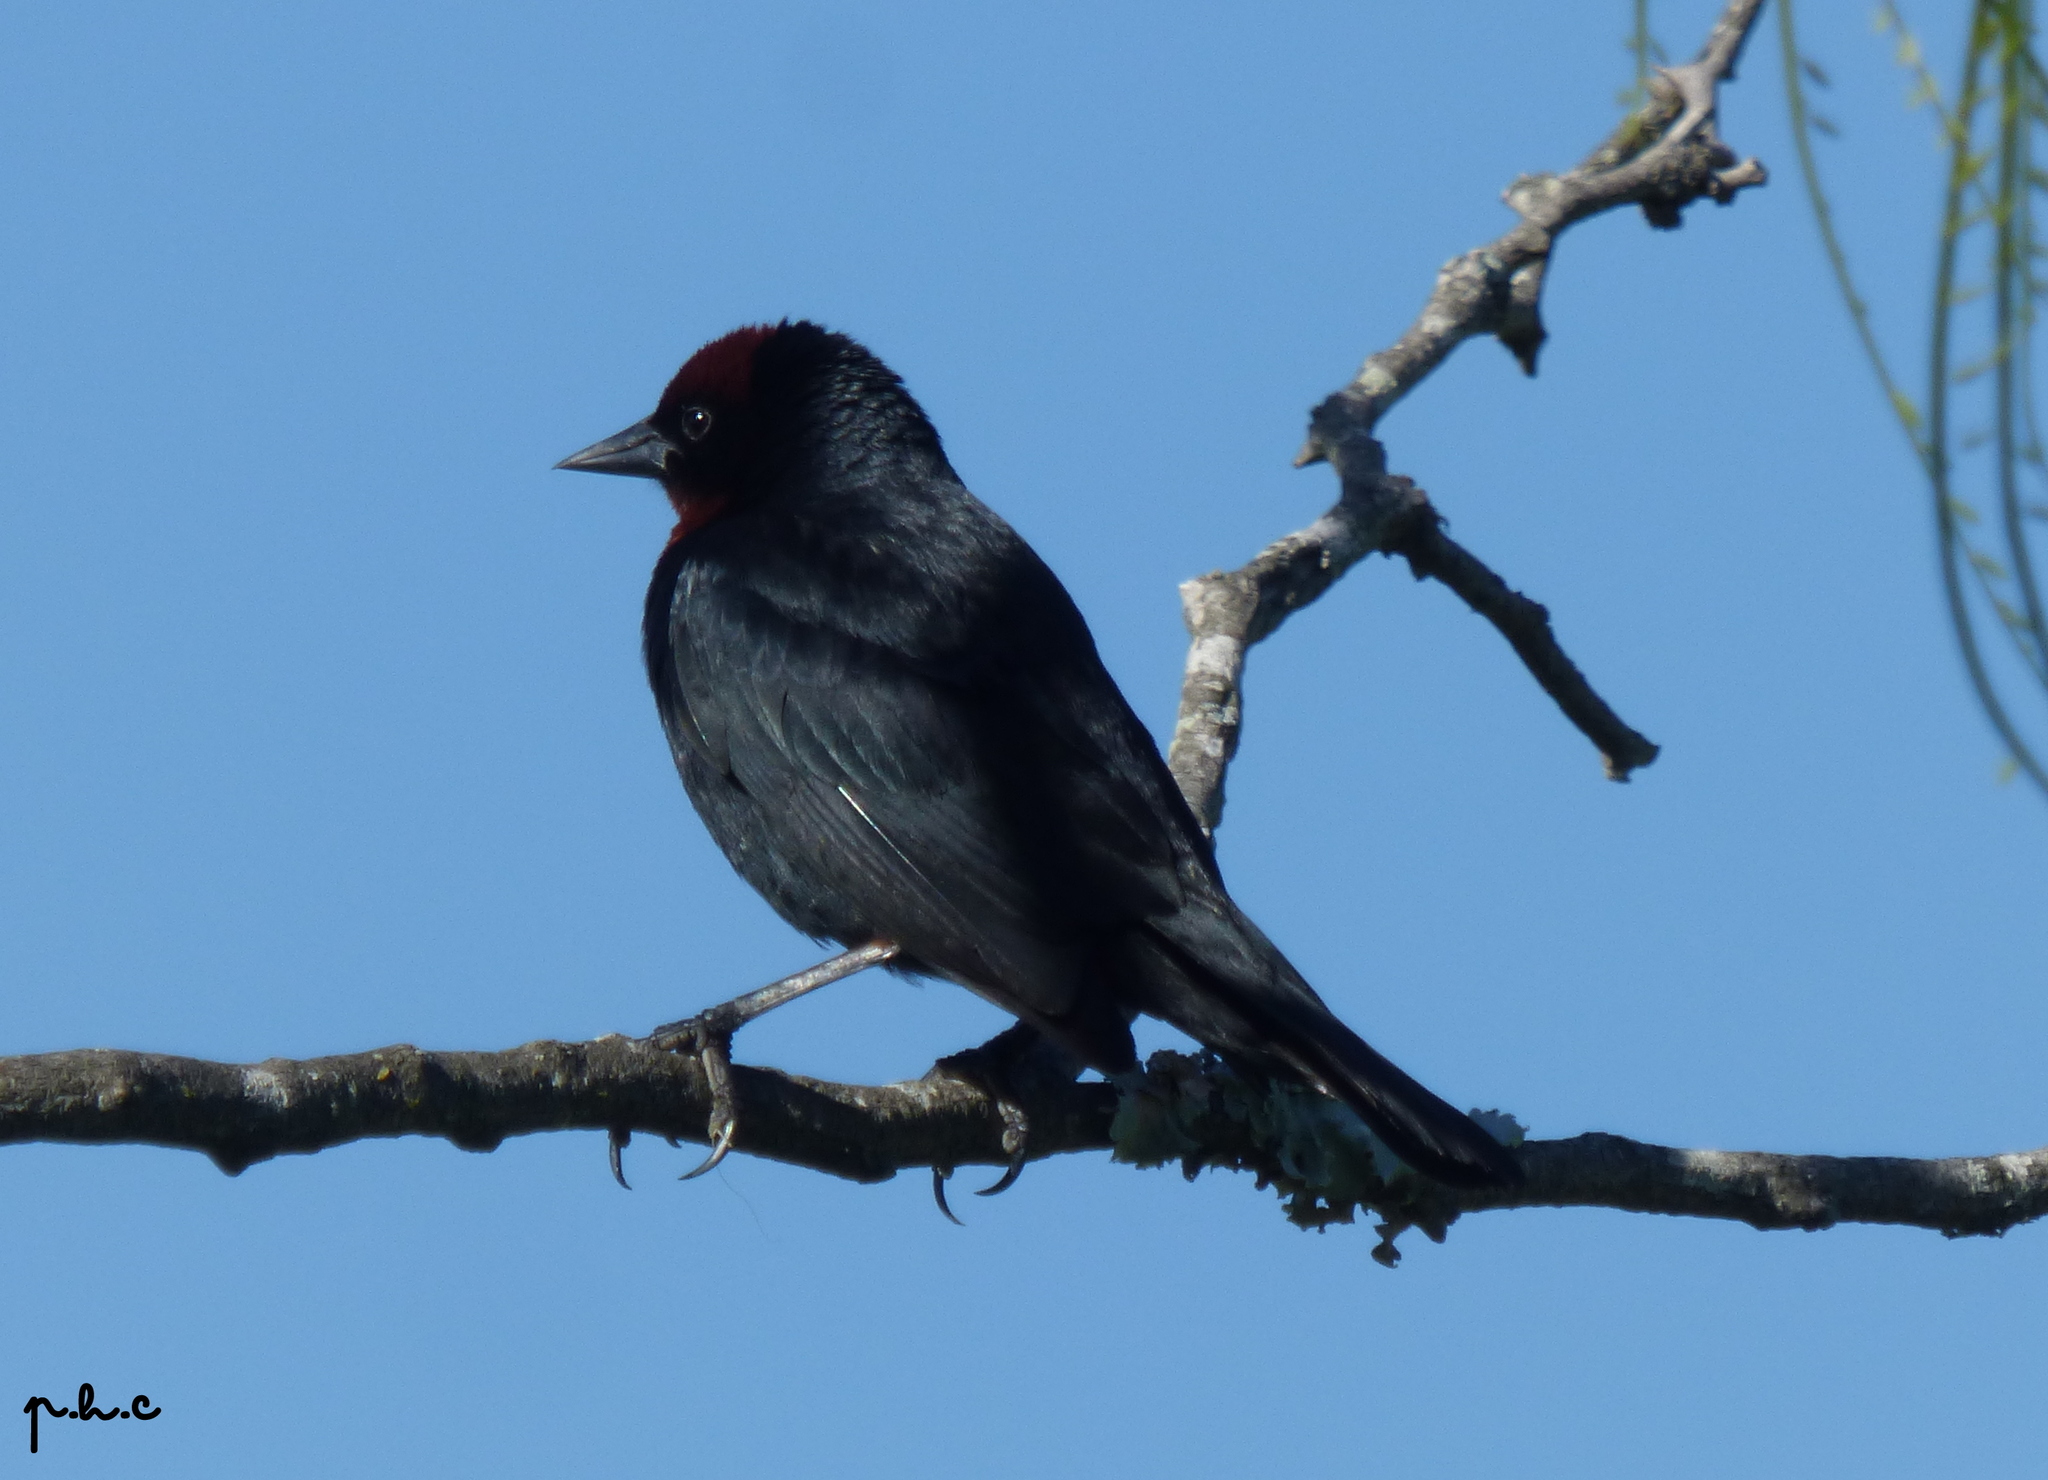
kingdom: Animalia
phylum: Chordata
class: Aves
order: Passeriformes
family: Icteridae
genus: Chrysomus
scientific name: Chrysomus ruficapillus
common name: Chestnut-capped blackbird
